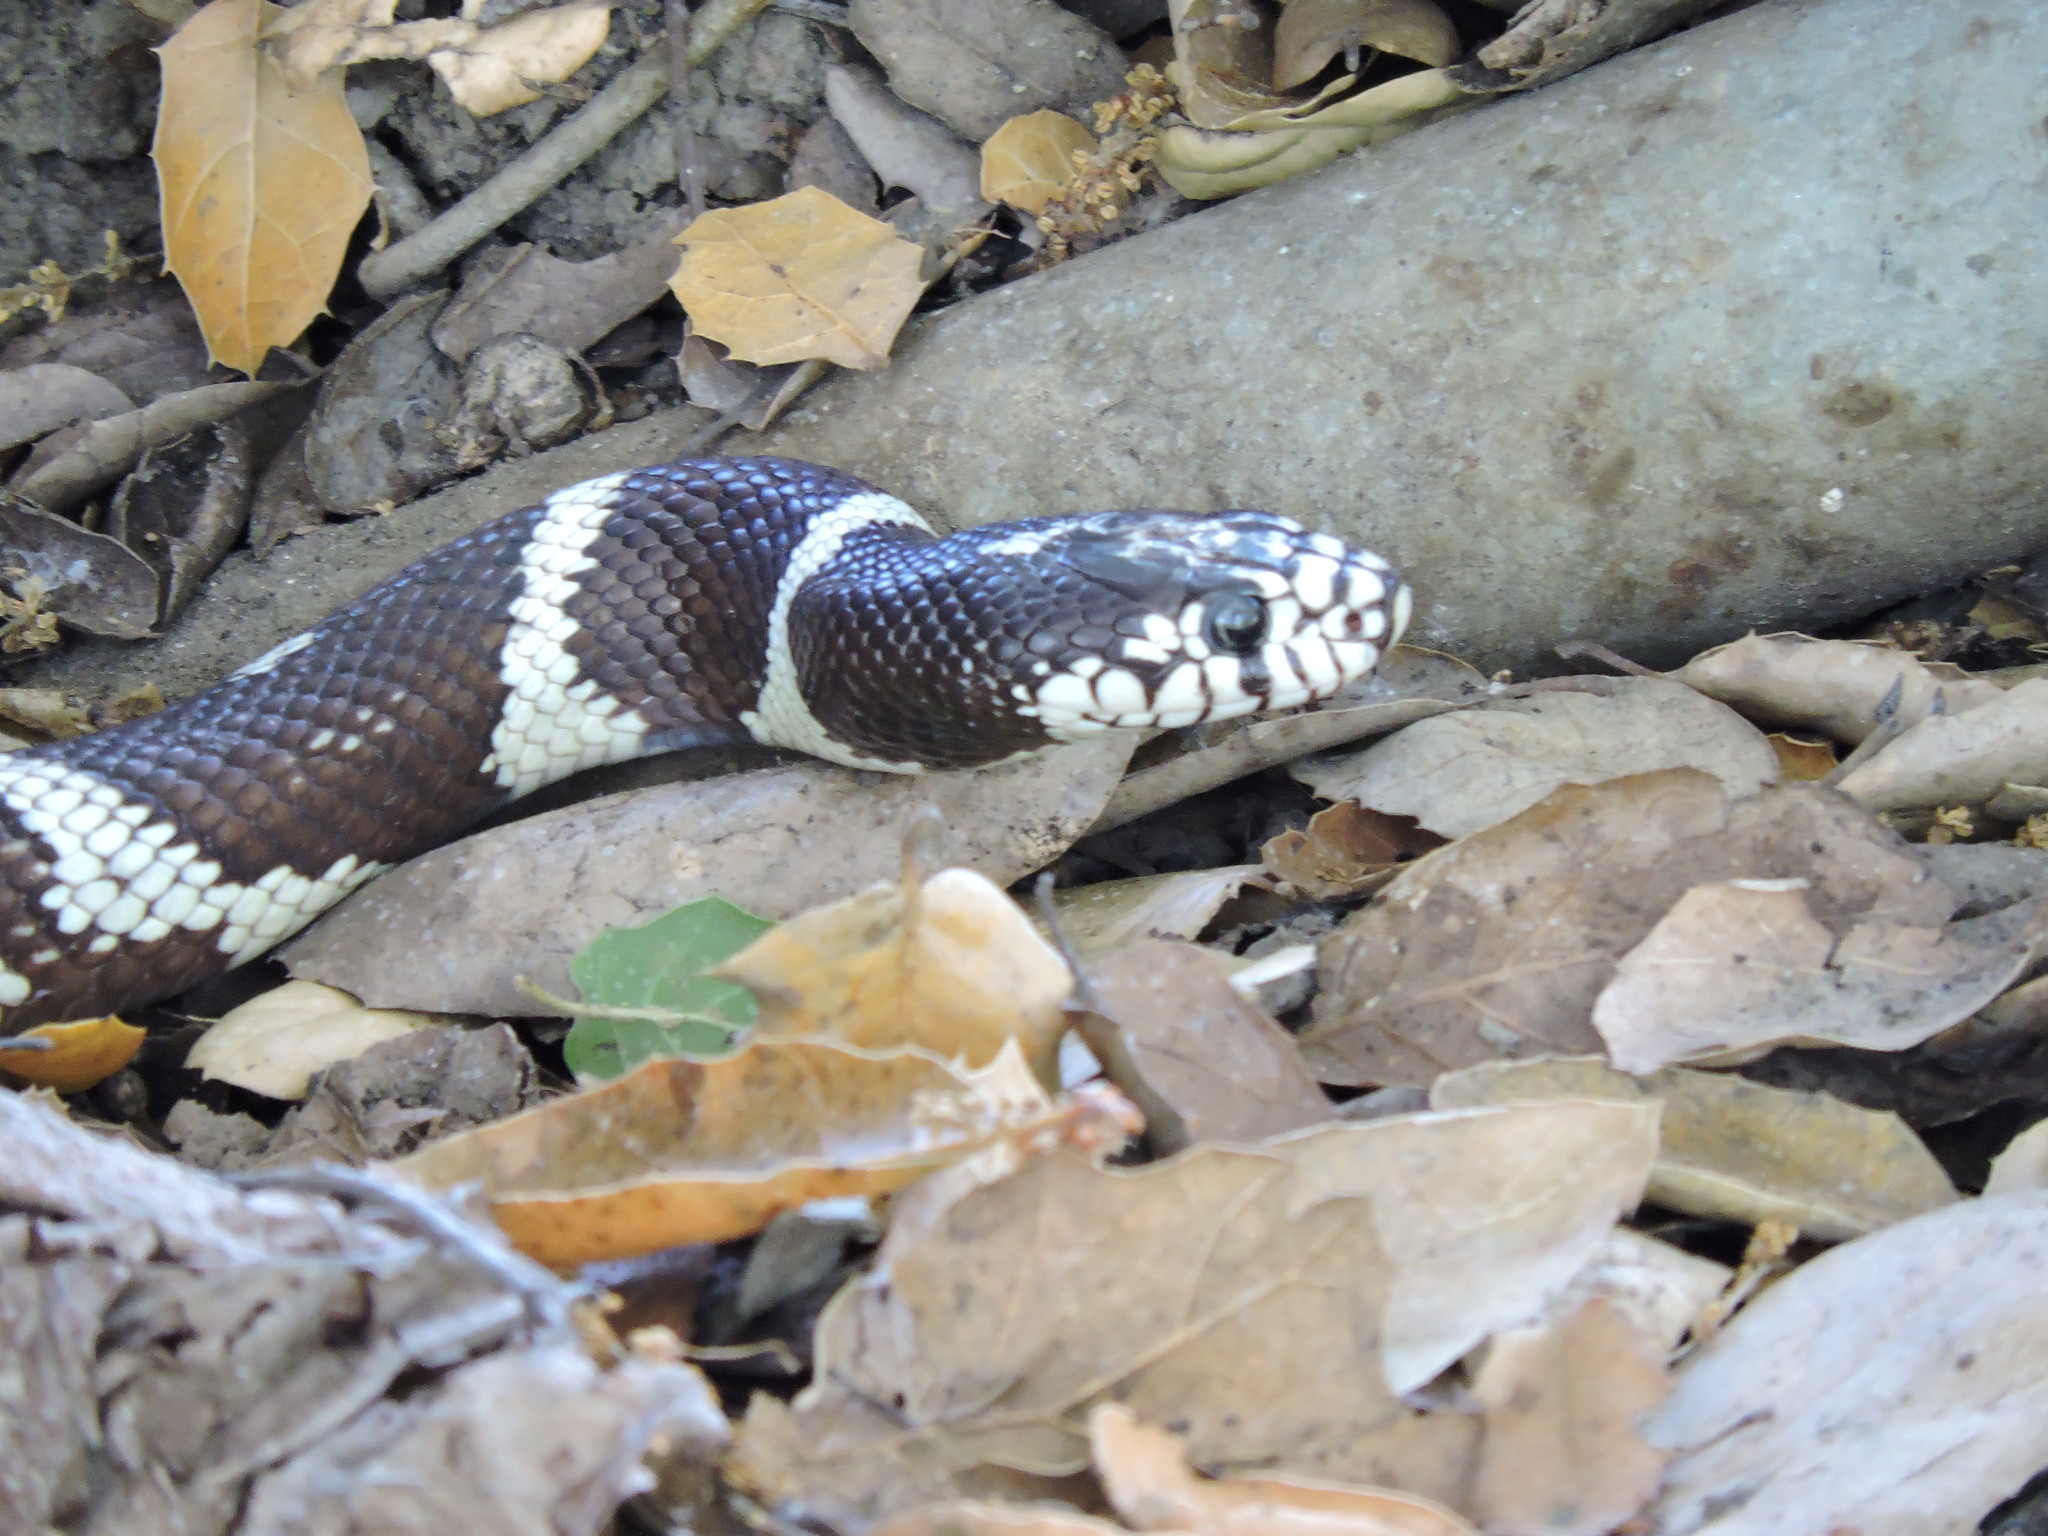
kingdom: Animalia
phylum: Chordata
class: Squamata
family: Colubridae
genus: Lampropeltis
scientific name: Lampropeltis californiae
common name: California kingsnake
